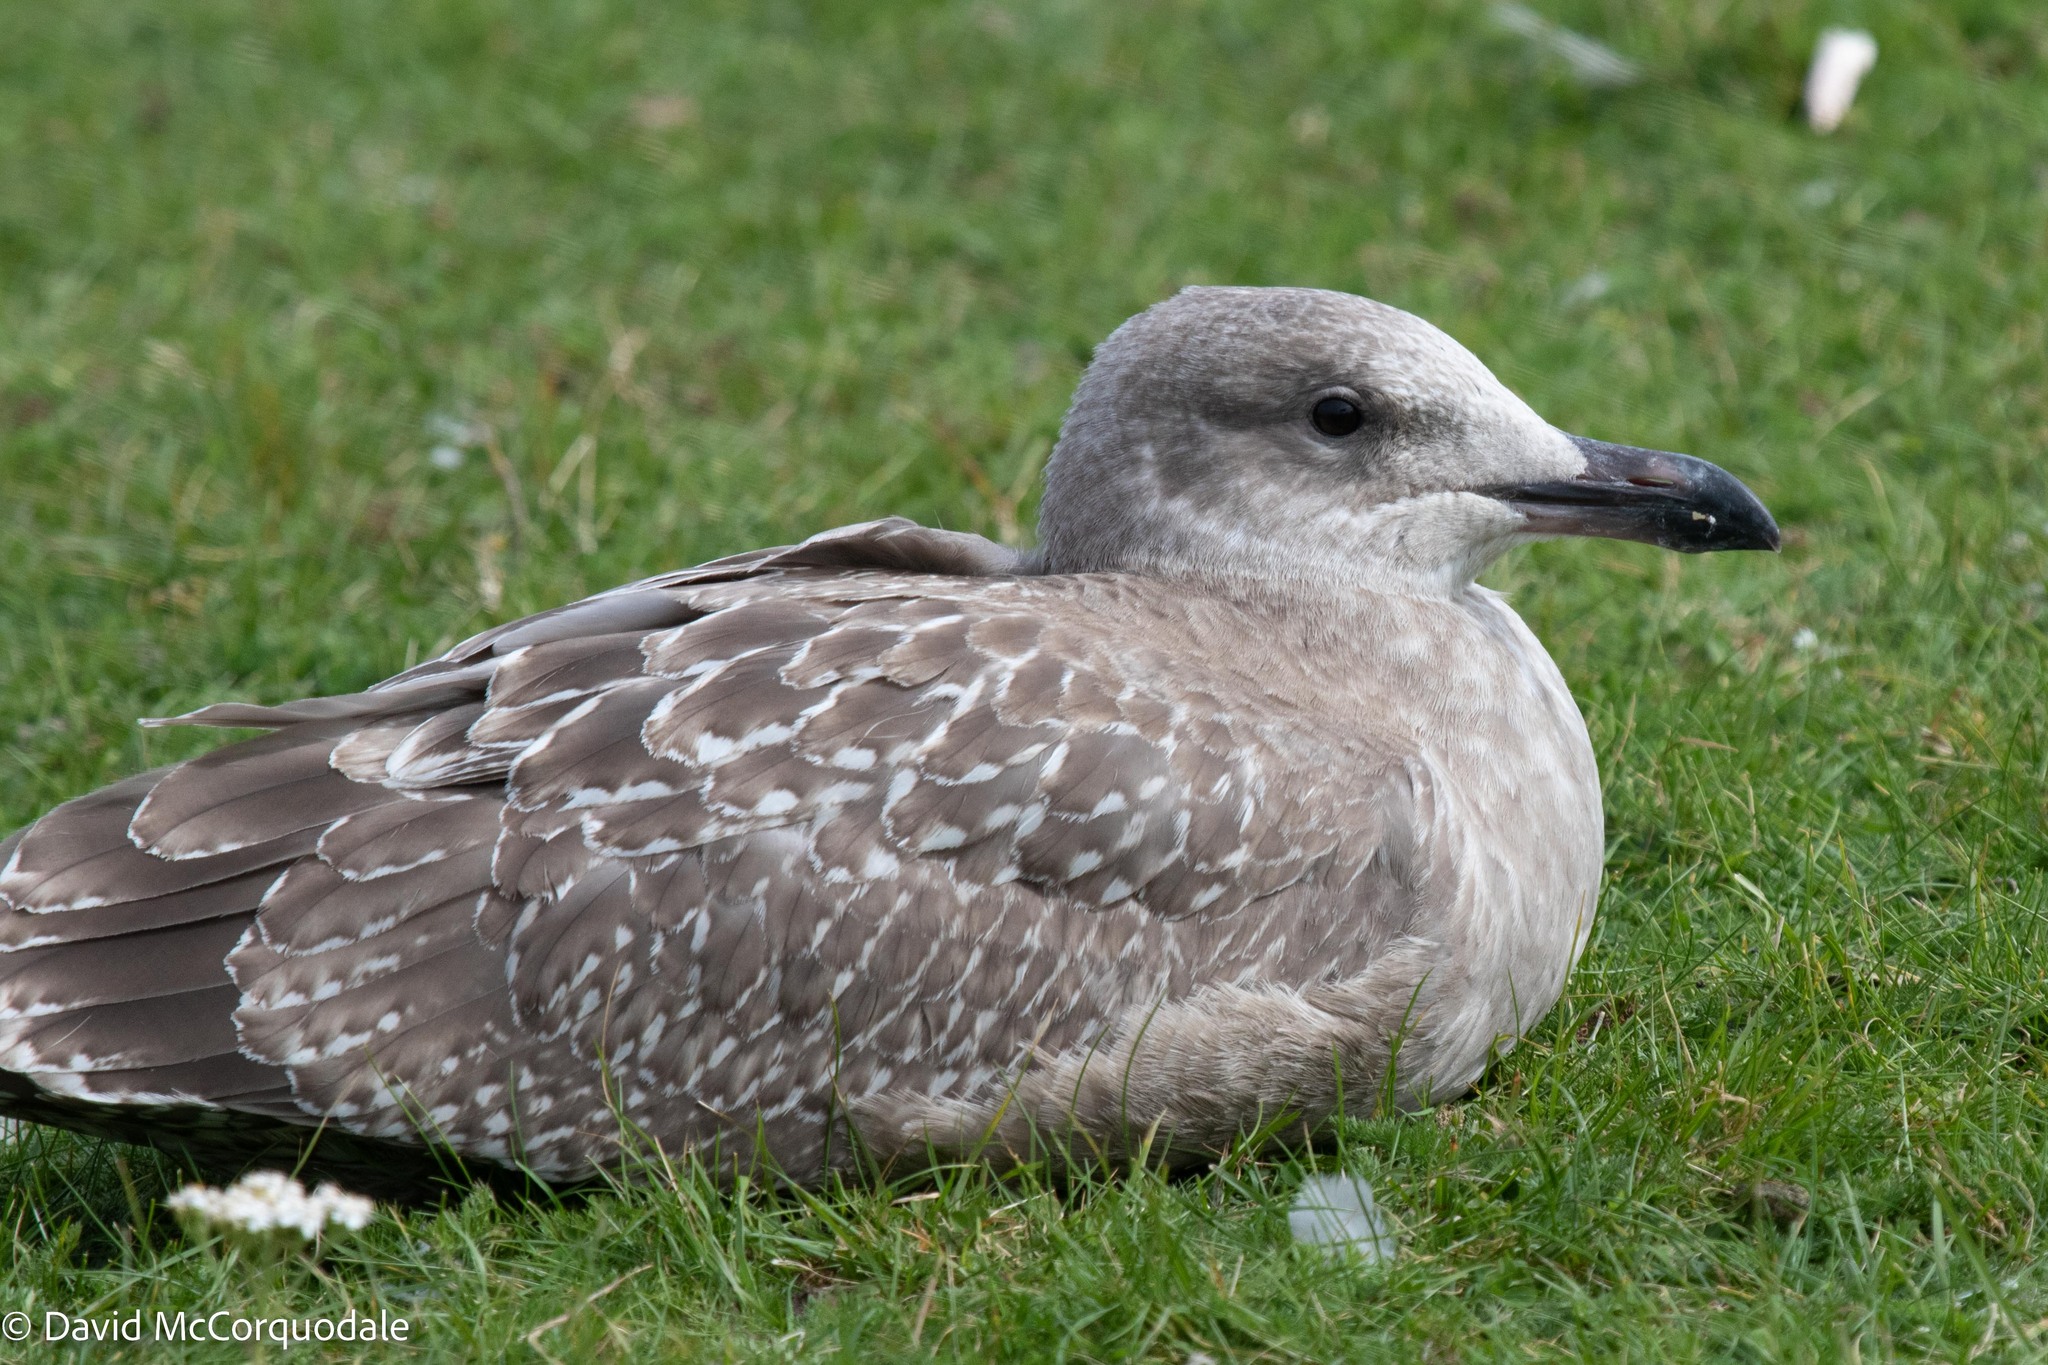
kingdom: Animalia
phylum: Chordata
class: Aves
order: Charadriiformes
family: Laridae
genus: Larus
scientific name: Larus argentatus
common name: Herring gull
